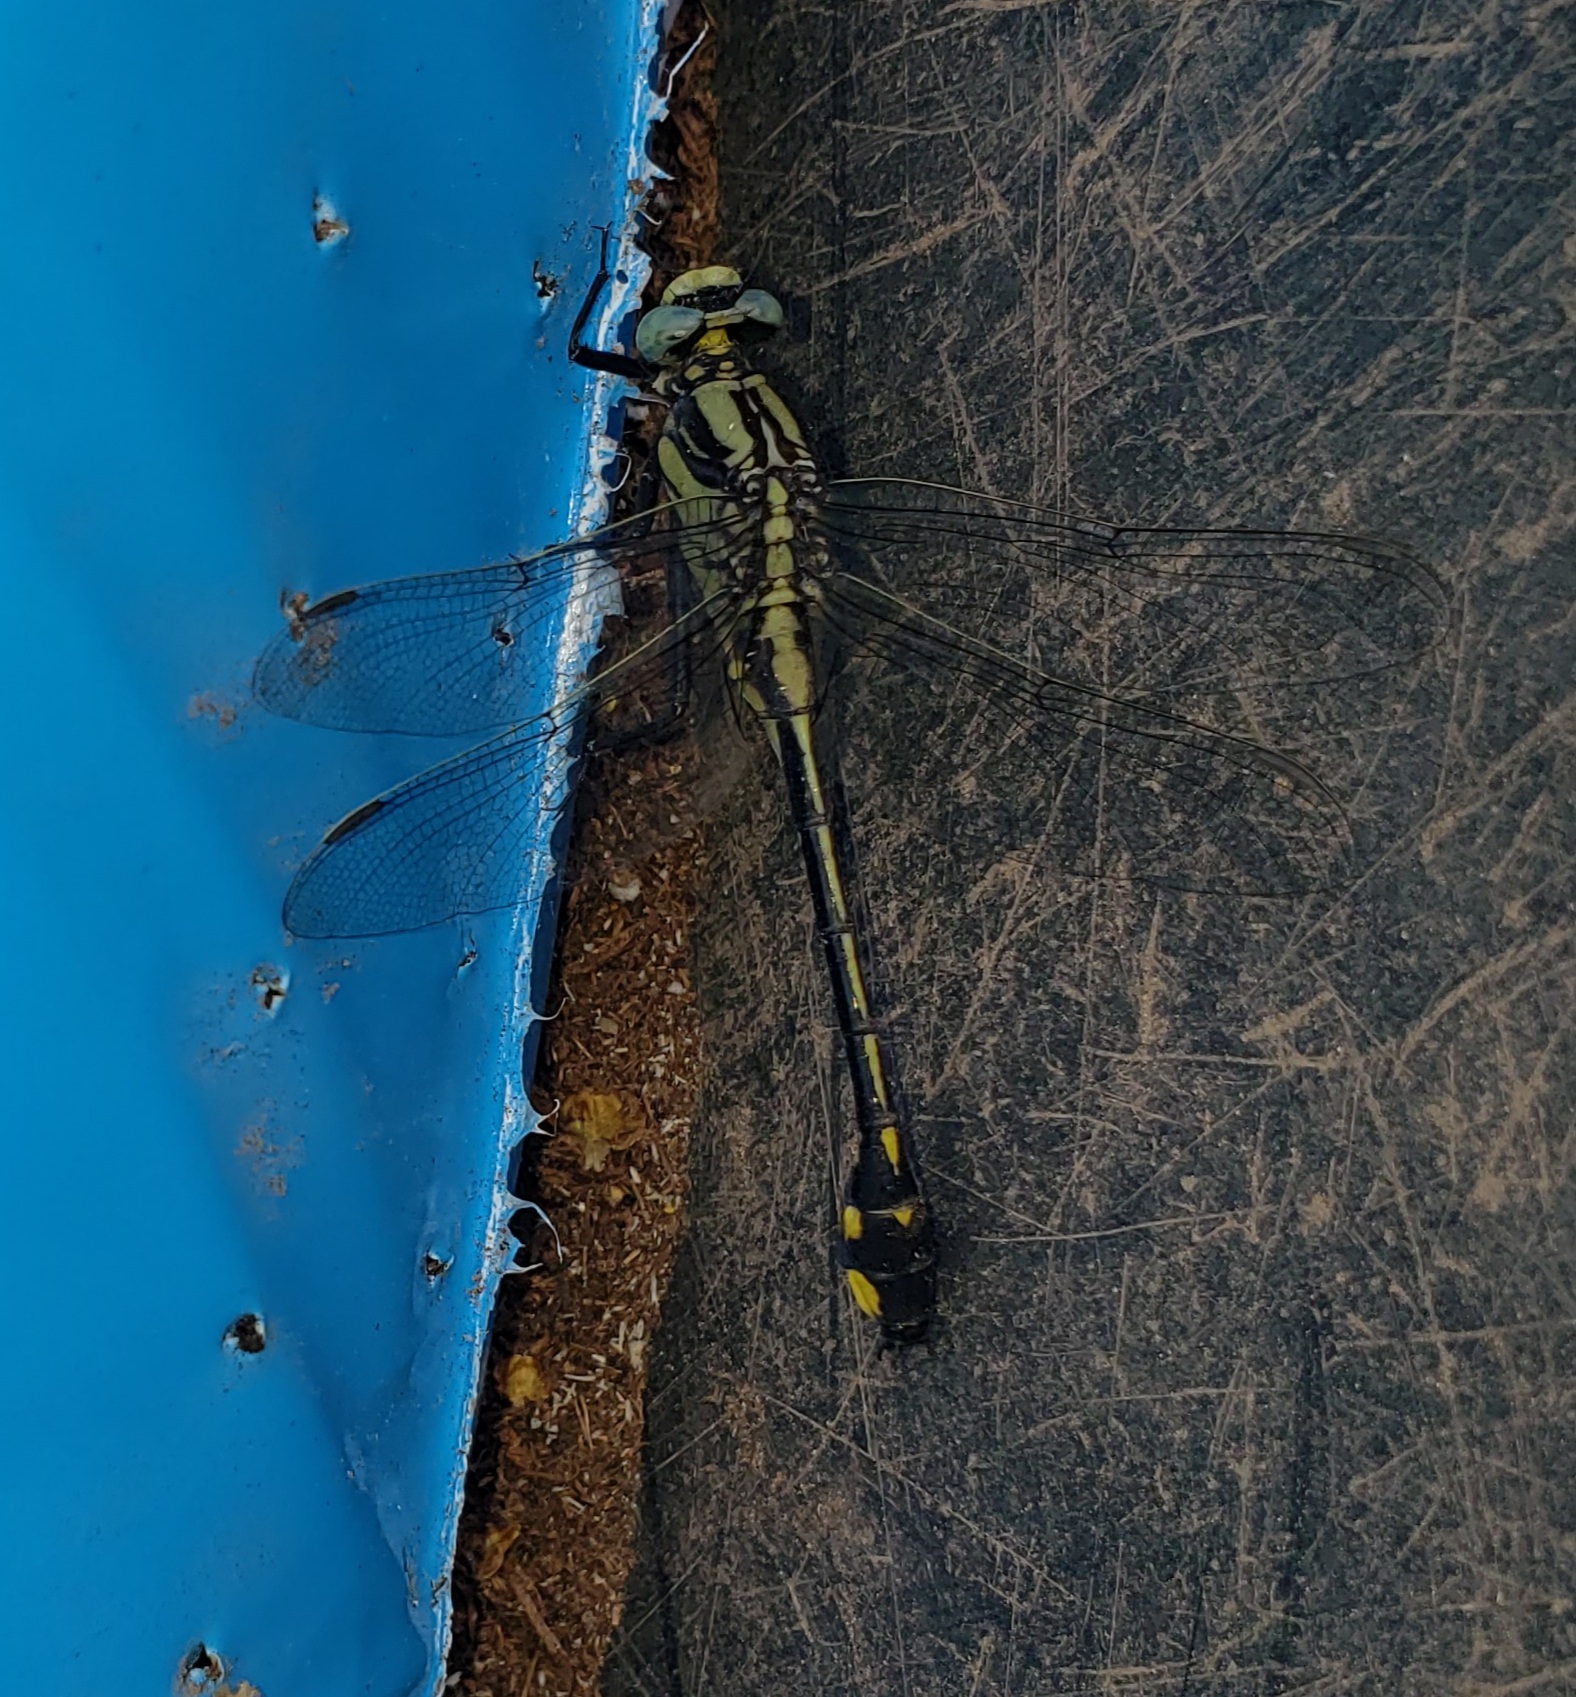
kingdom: Animalia
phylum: Arthropoda
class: Insecta
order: Odonata
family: Gomphidae
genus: Gomphurus
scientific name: Gomphurus fraternus
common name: Midland clubtail
